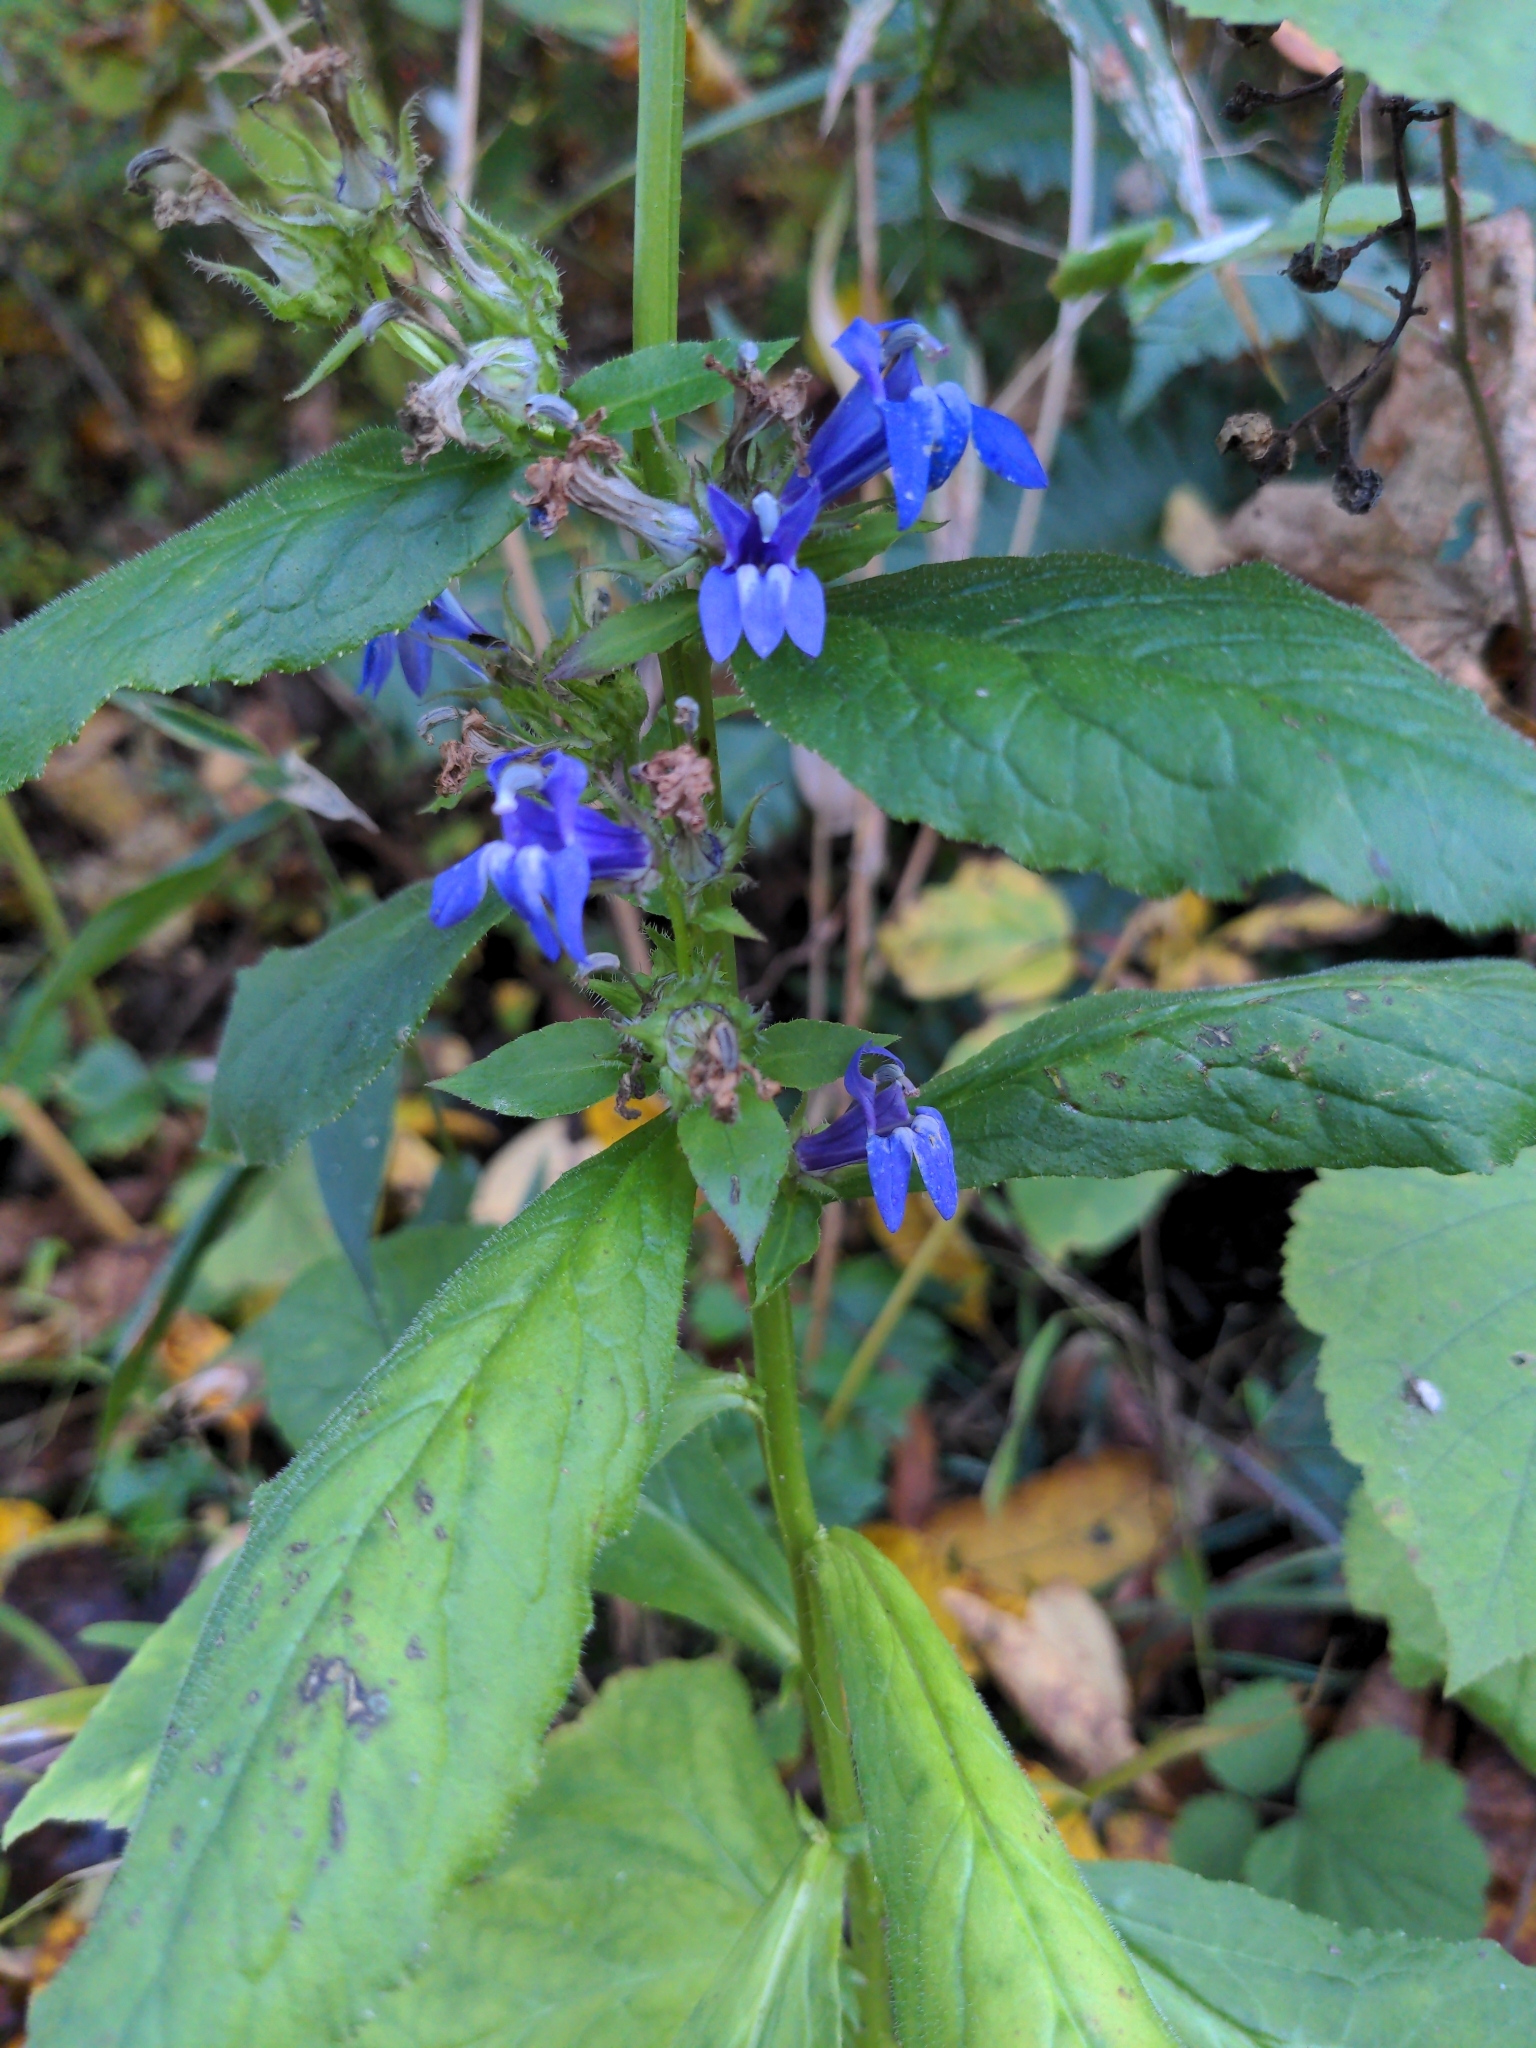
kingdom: Plantae
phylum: Tracheophyta
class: Magnoliopsida
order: Asterales
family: Campanulaceae
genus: Lobelia
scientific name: Lobelia siphilitica
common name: Great lobelia
